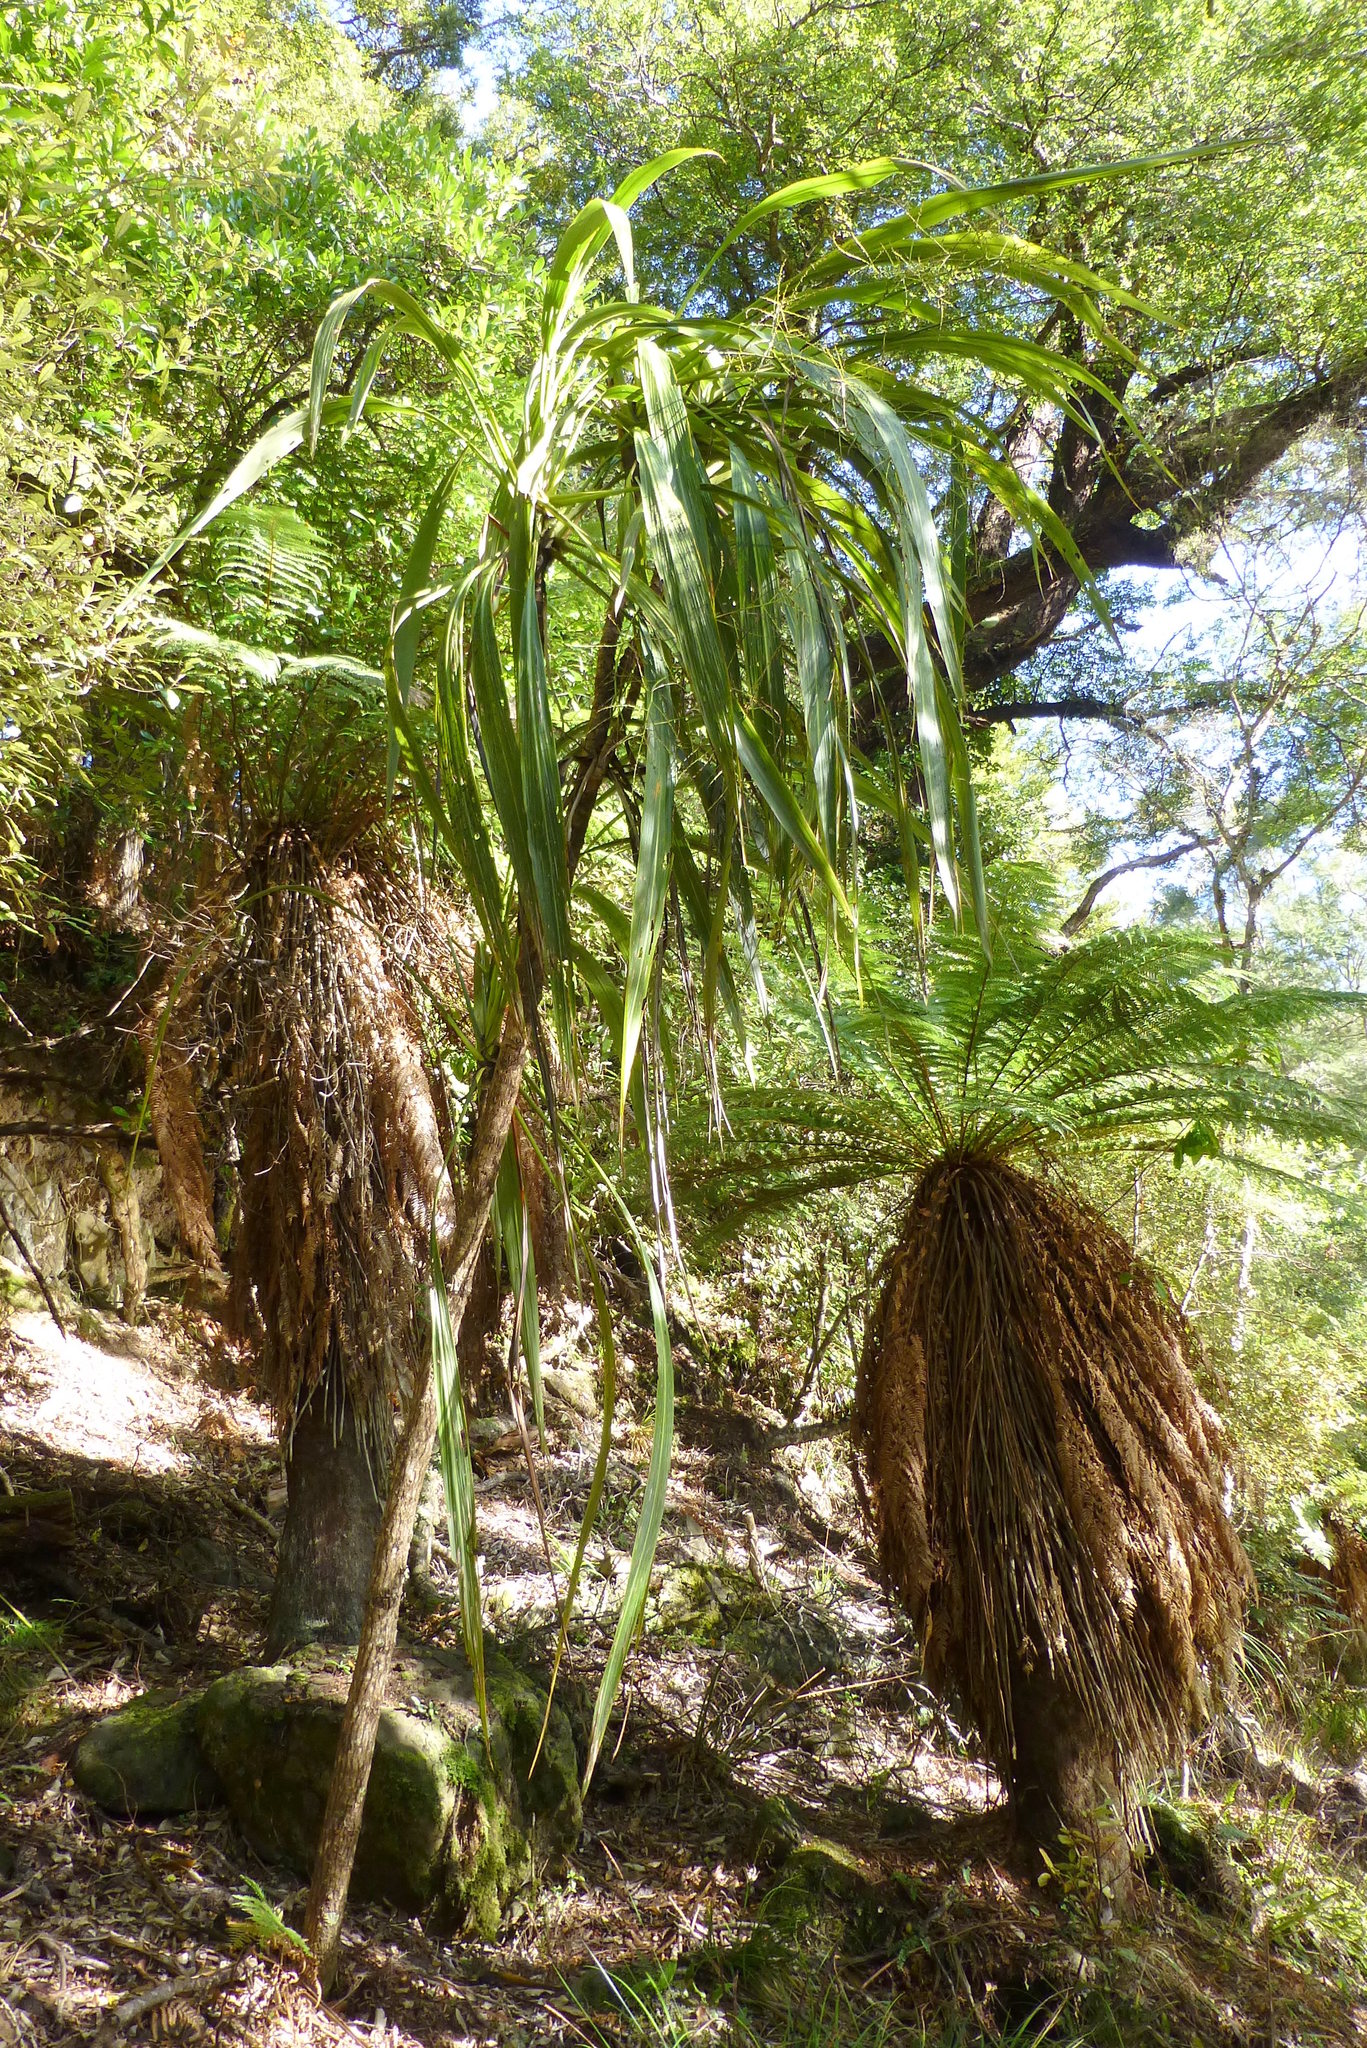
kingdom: Plantae
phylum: Tracheophyta
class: Liliopsida
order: Asparagales
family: Asparagaceae
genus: Cordyline
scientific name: Cordyline banksii
